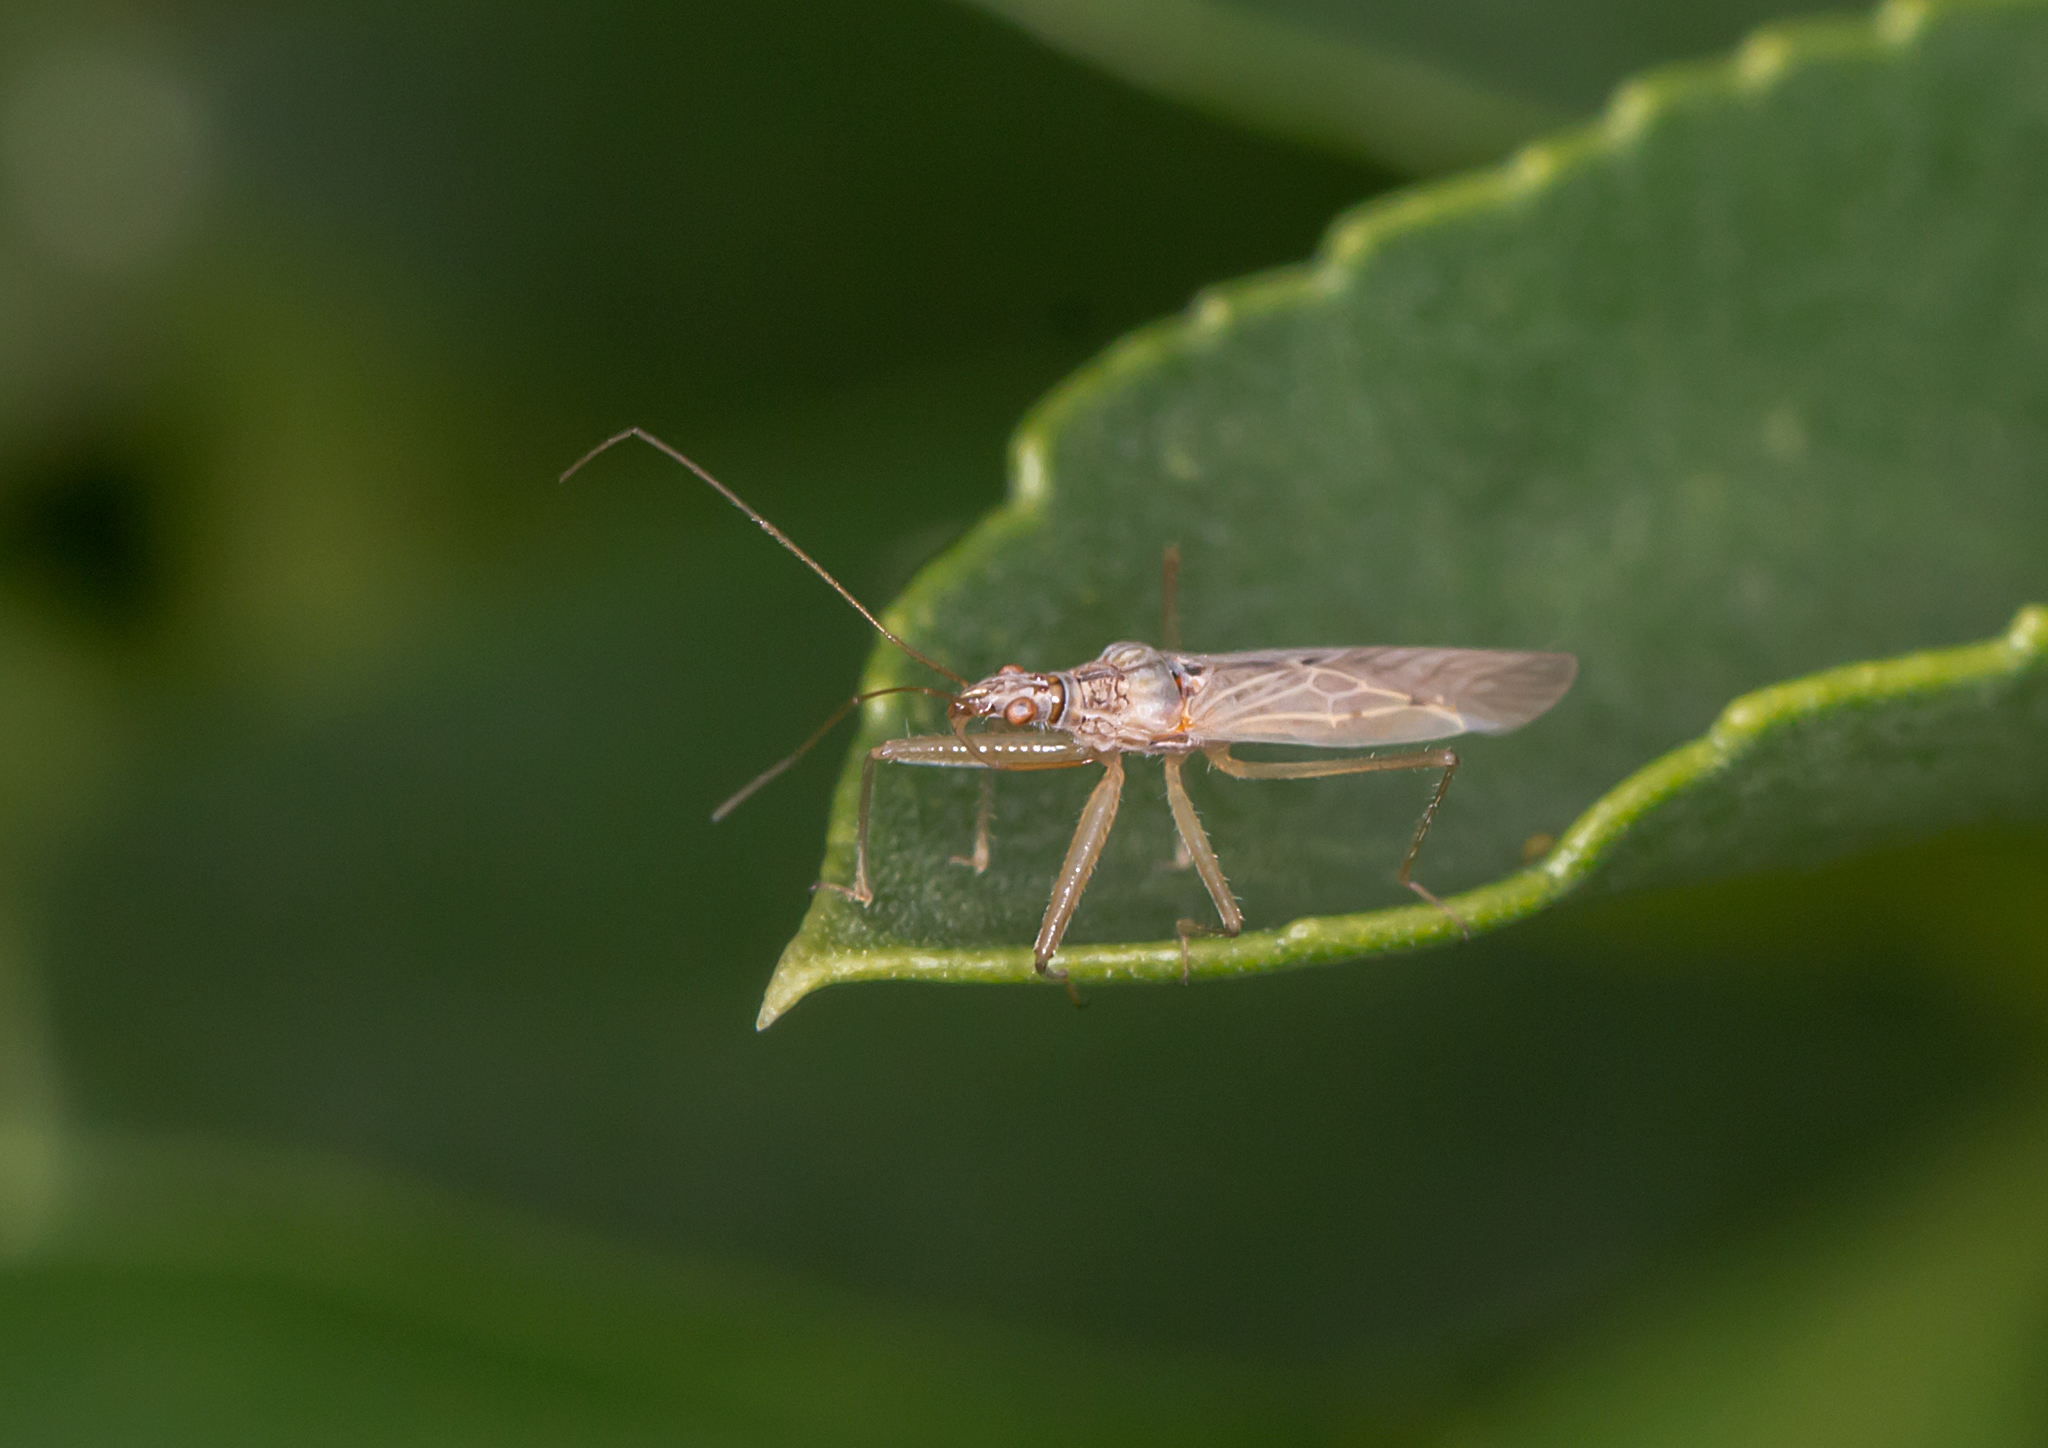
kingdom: Animalia
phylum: Arthropoda
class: Insecta
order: Hemiptera
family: Nabidae
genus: Nabis
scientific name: Nabis kinbergii
